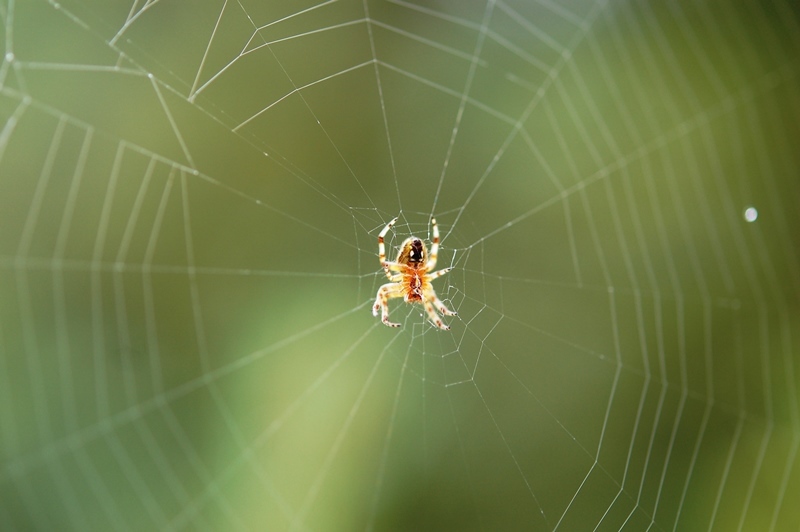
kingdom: Animalia
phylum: Arthropoda
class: Arachnida
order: Araneae
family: Araneidae
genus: Neoscona
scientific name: Neoscona oaxacensis
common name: Orb weavers
